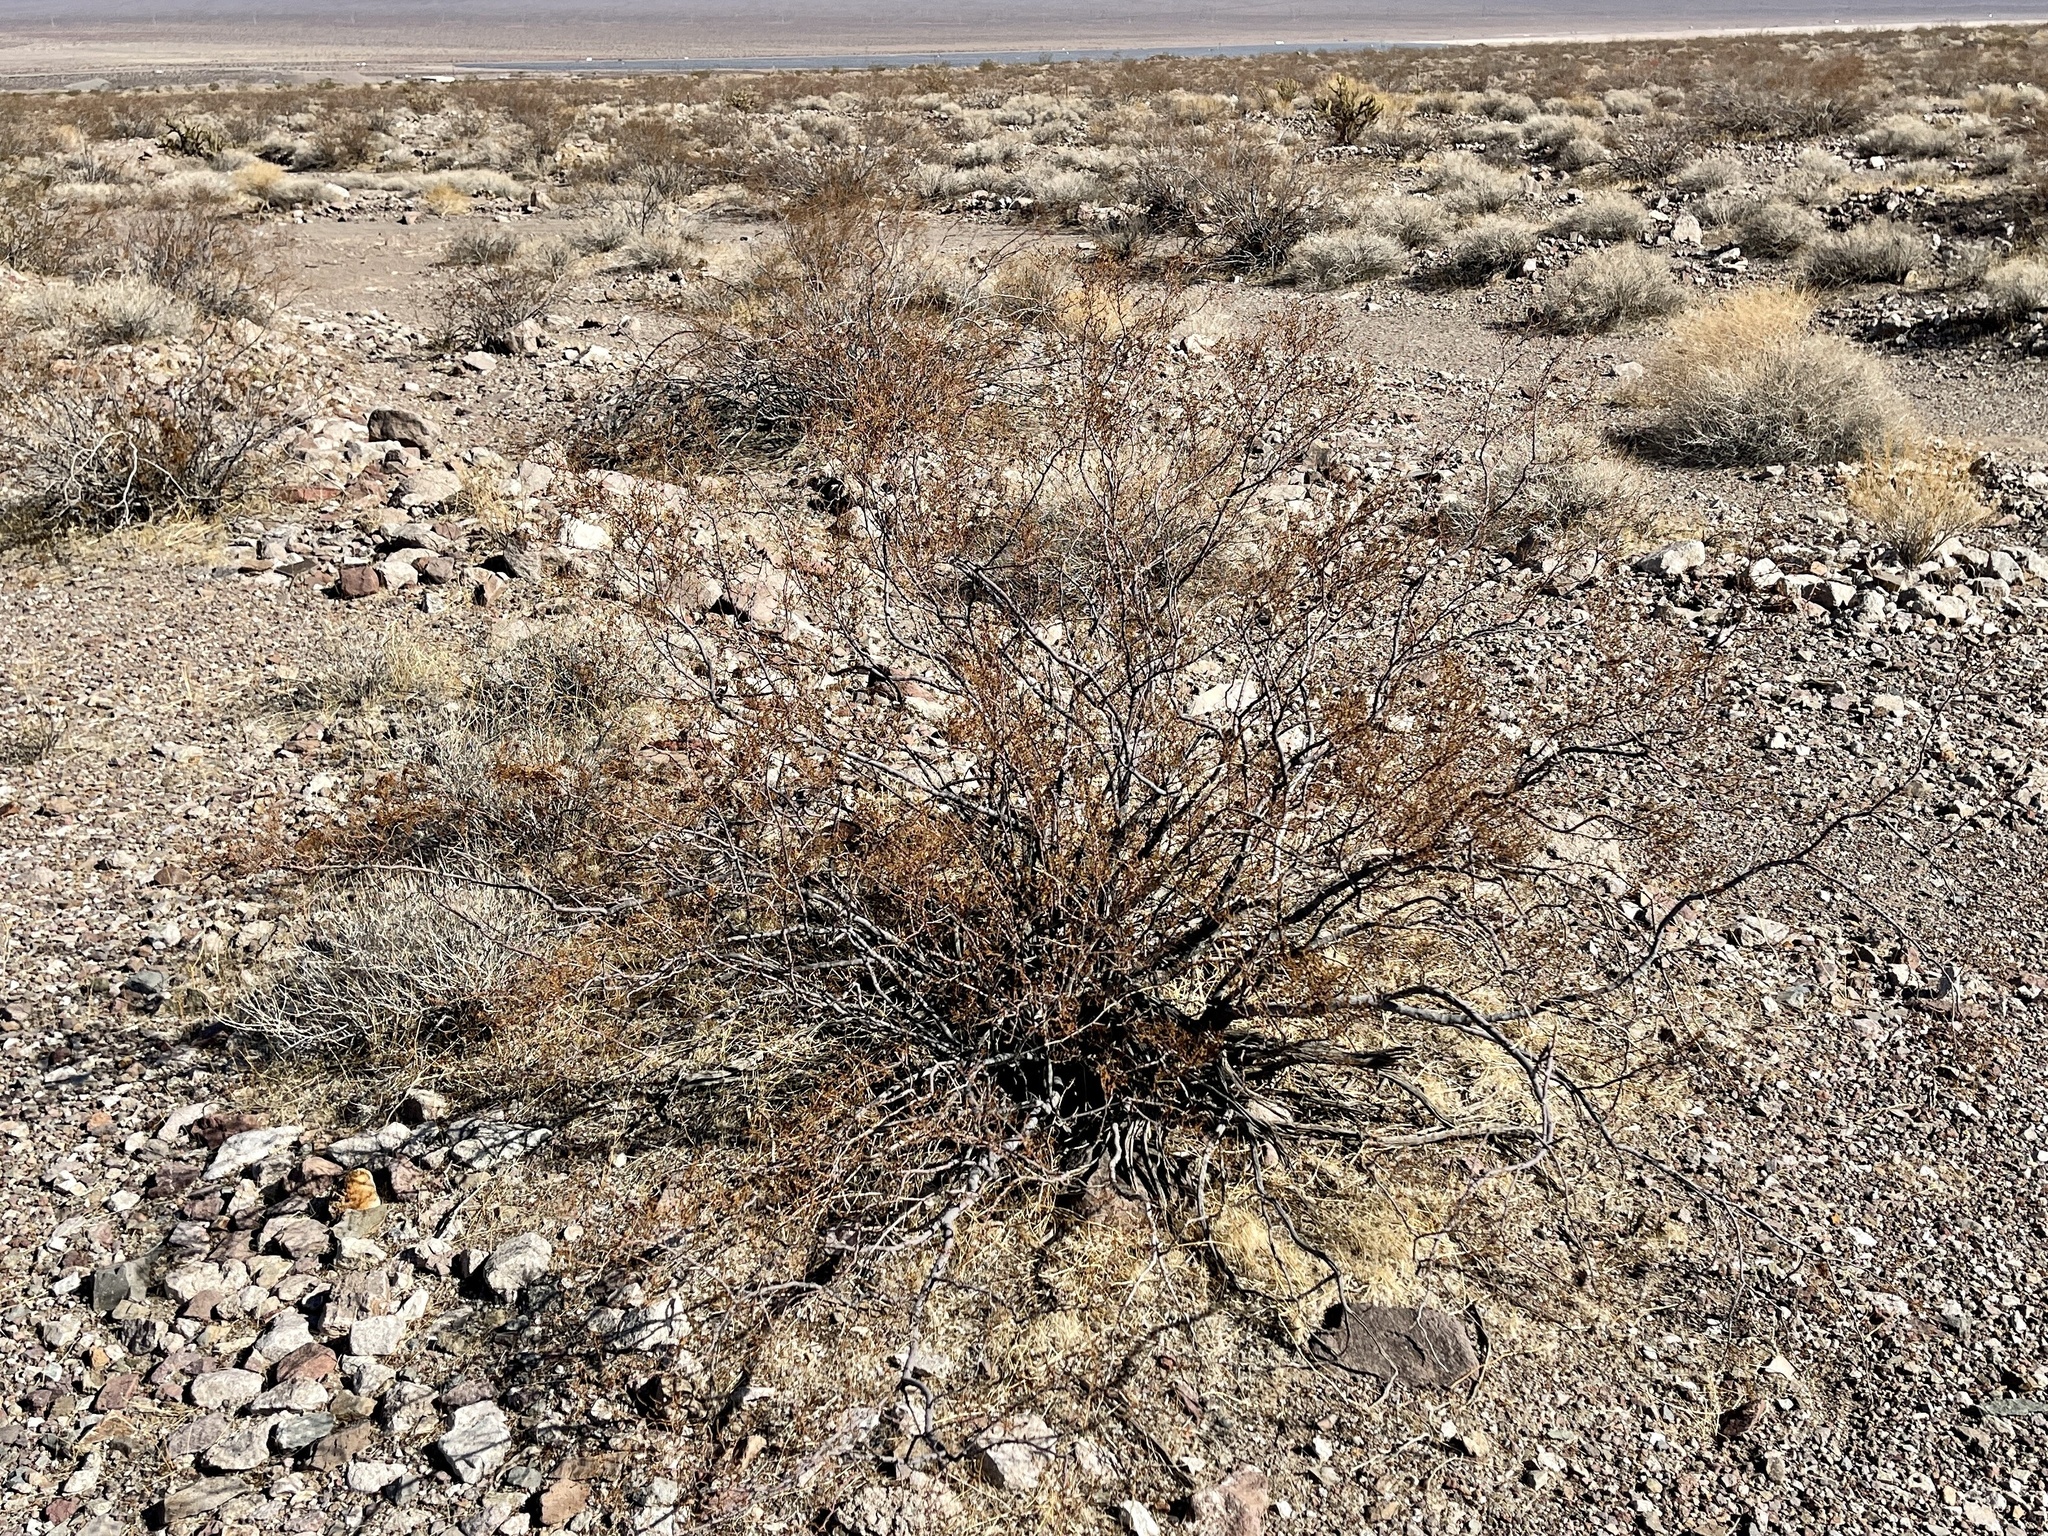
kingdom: Plantae
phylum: Tracheophyta
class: Magnoliopsida
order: Zygophyllales
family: Zygophyllaceae
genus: Larrea
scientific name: Larrea tridentata
